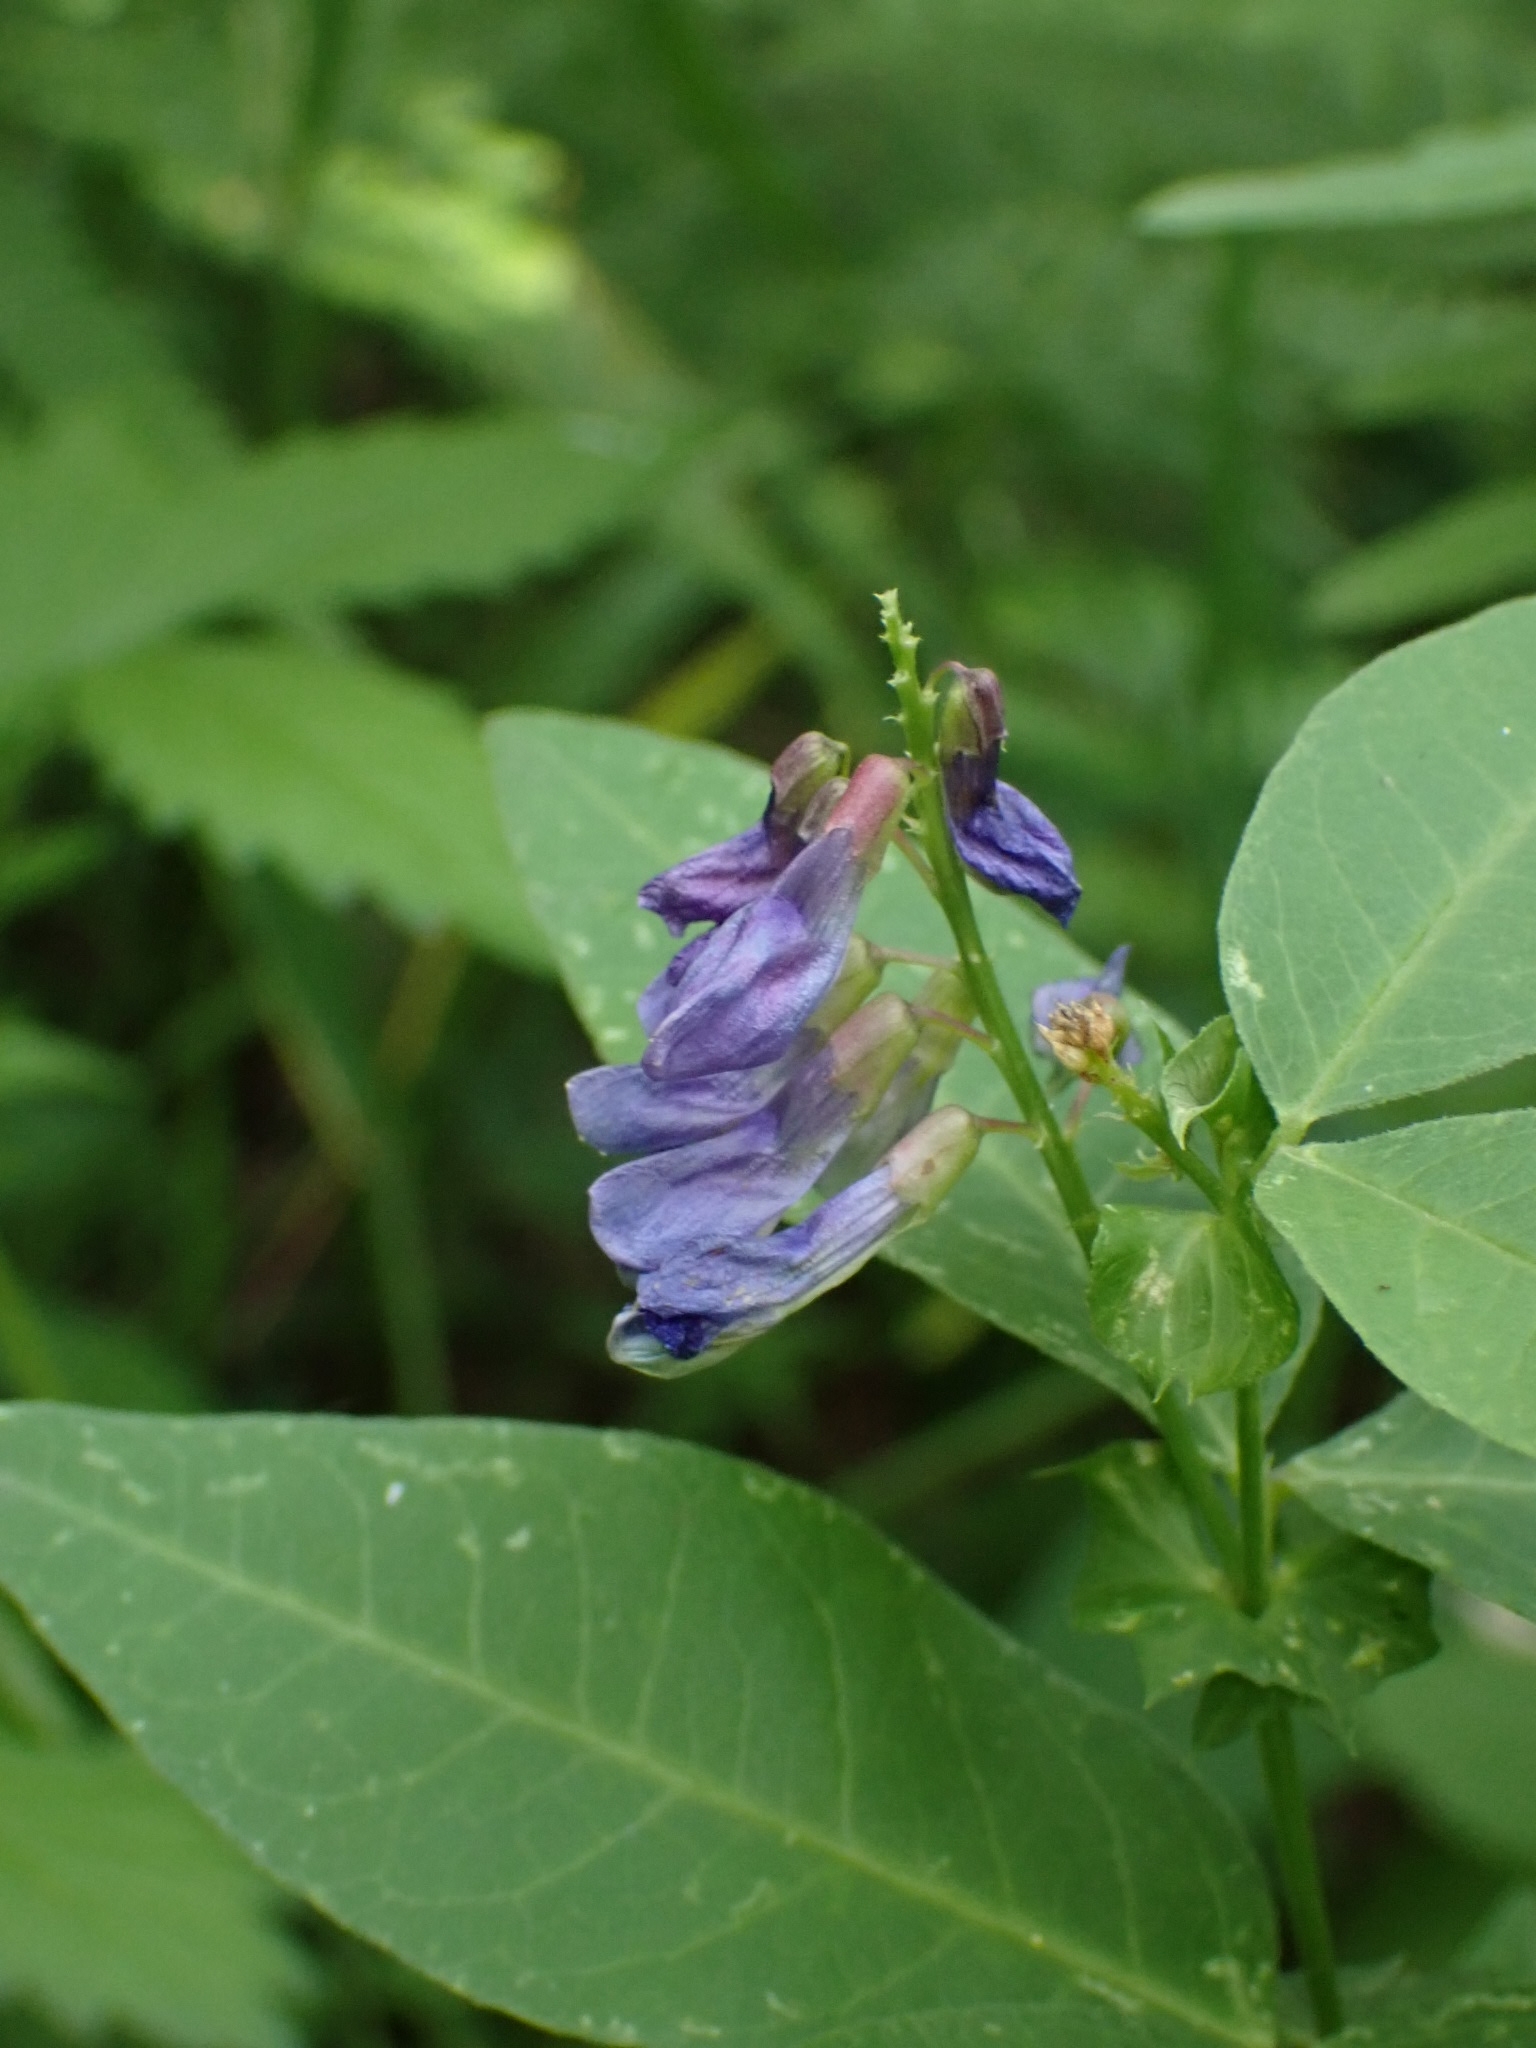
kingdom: Plantae
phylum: Tracheophyta
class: Magnoliopsida
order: Fabales
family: Fabaceae
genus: Vicia
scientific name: Vicia unijuga
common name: Two-leaf vetch
